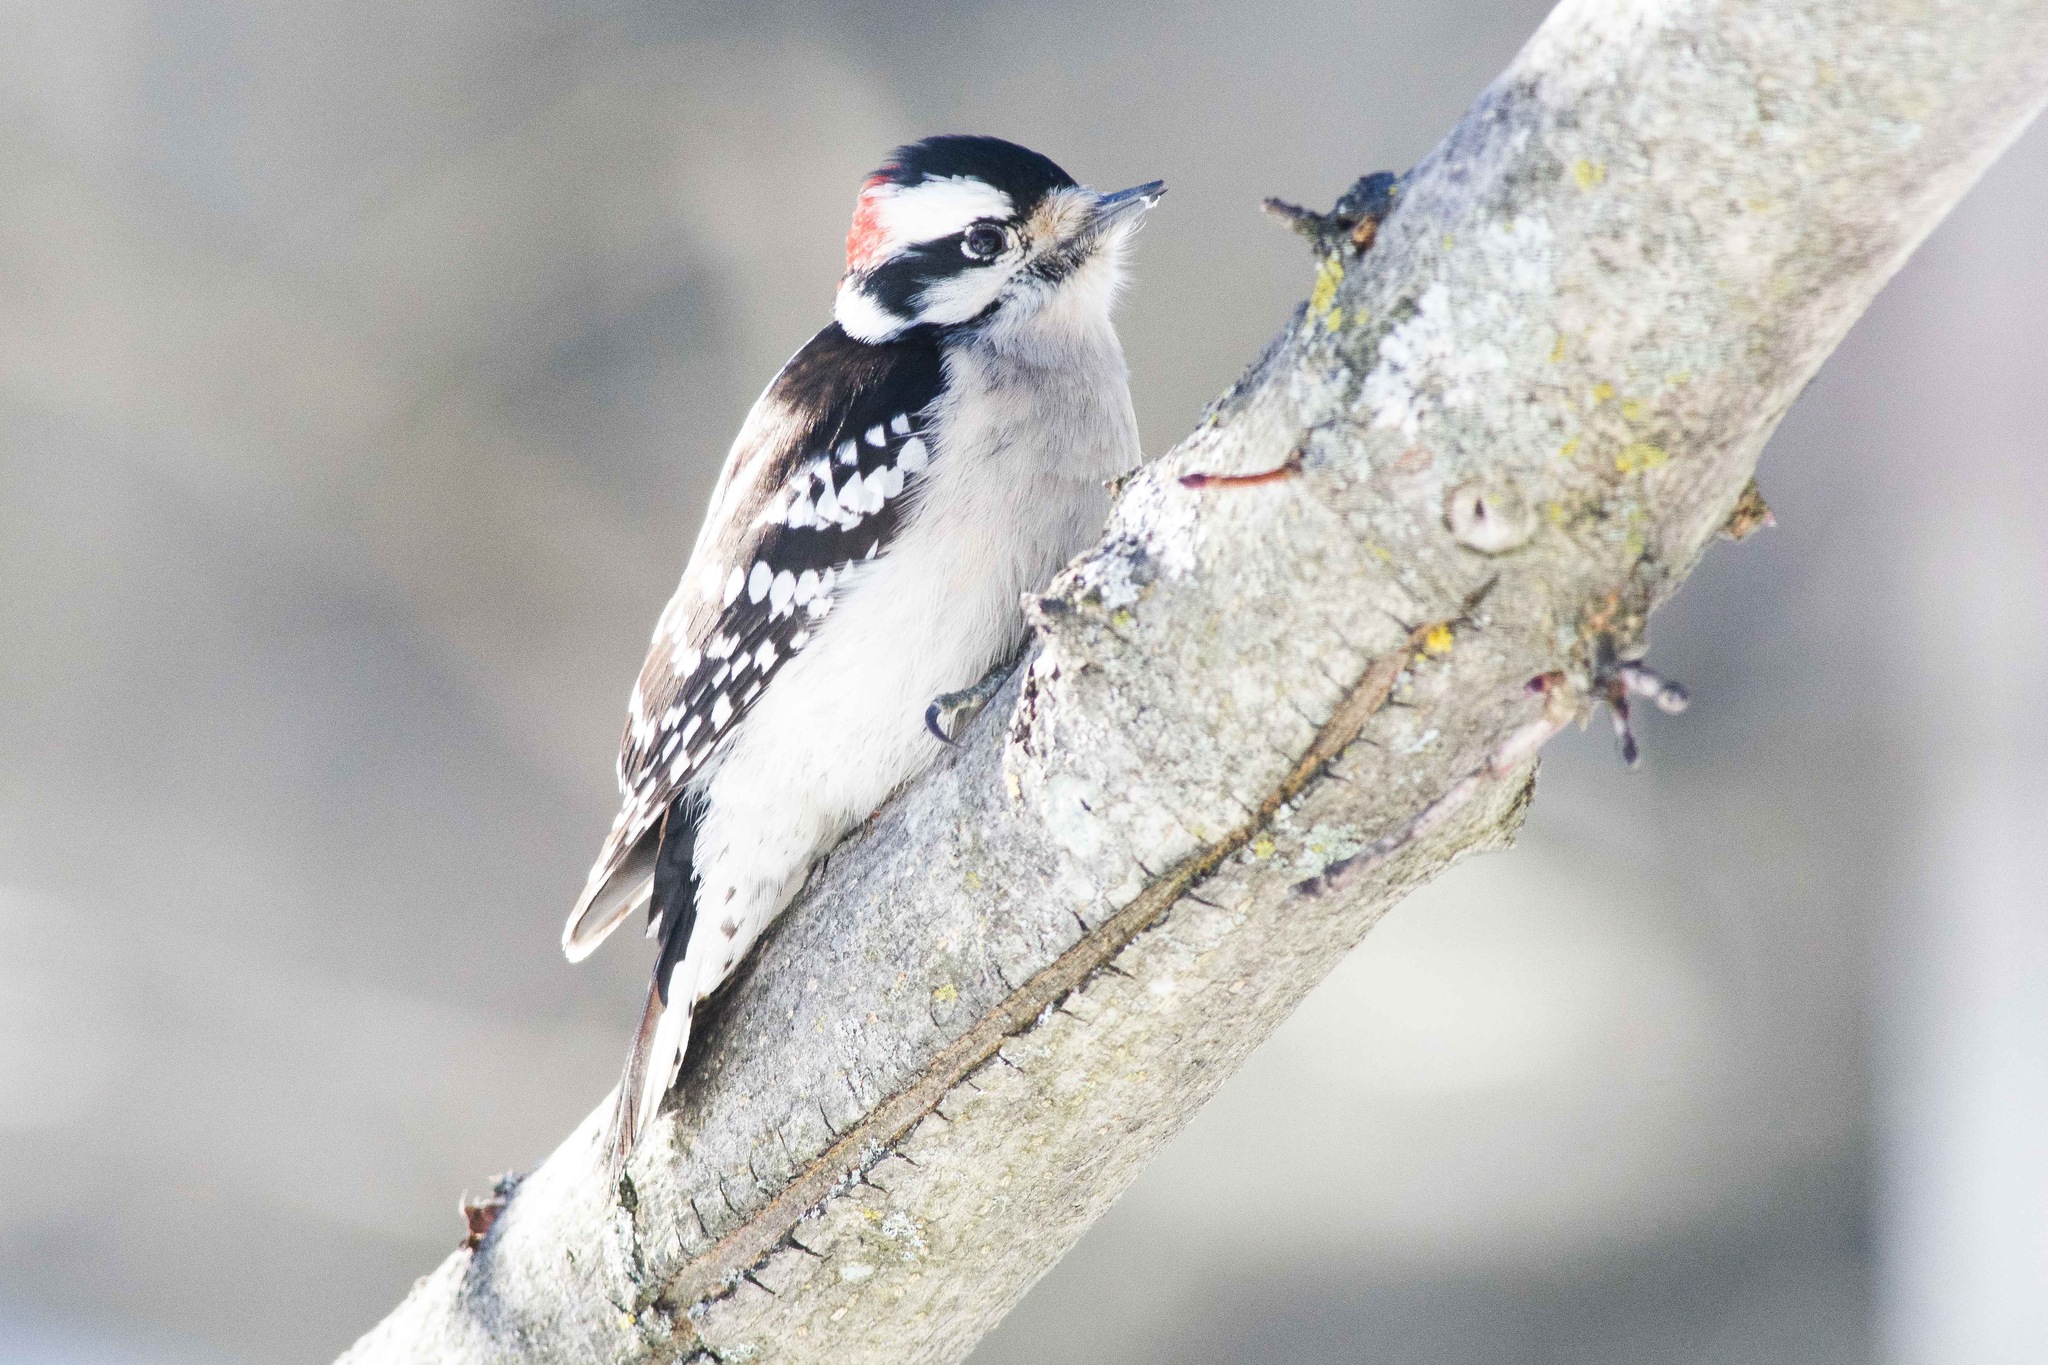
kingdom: Animalia
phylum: Chordata
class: Aves
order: Piciformes
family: Picidae
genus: Dryobates
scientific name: Dryobates pubescens
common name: Downy woodpecker
